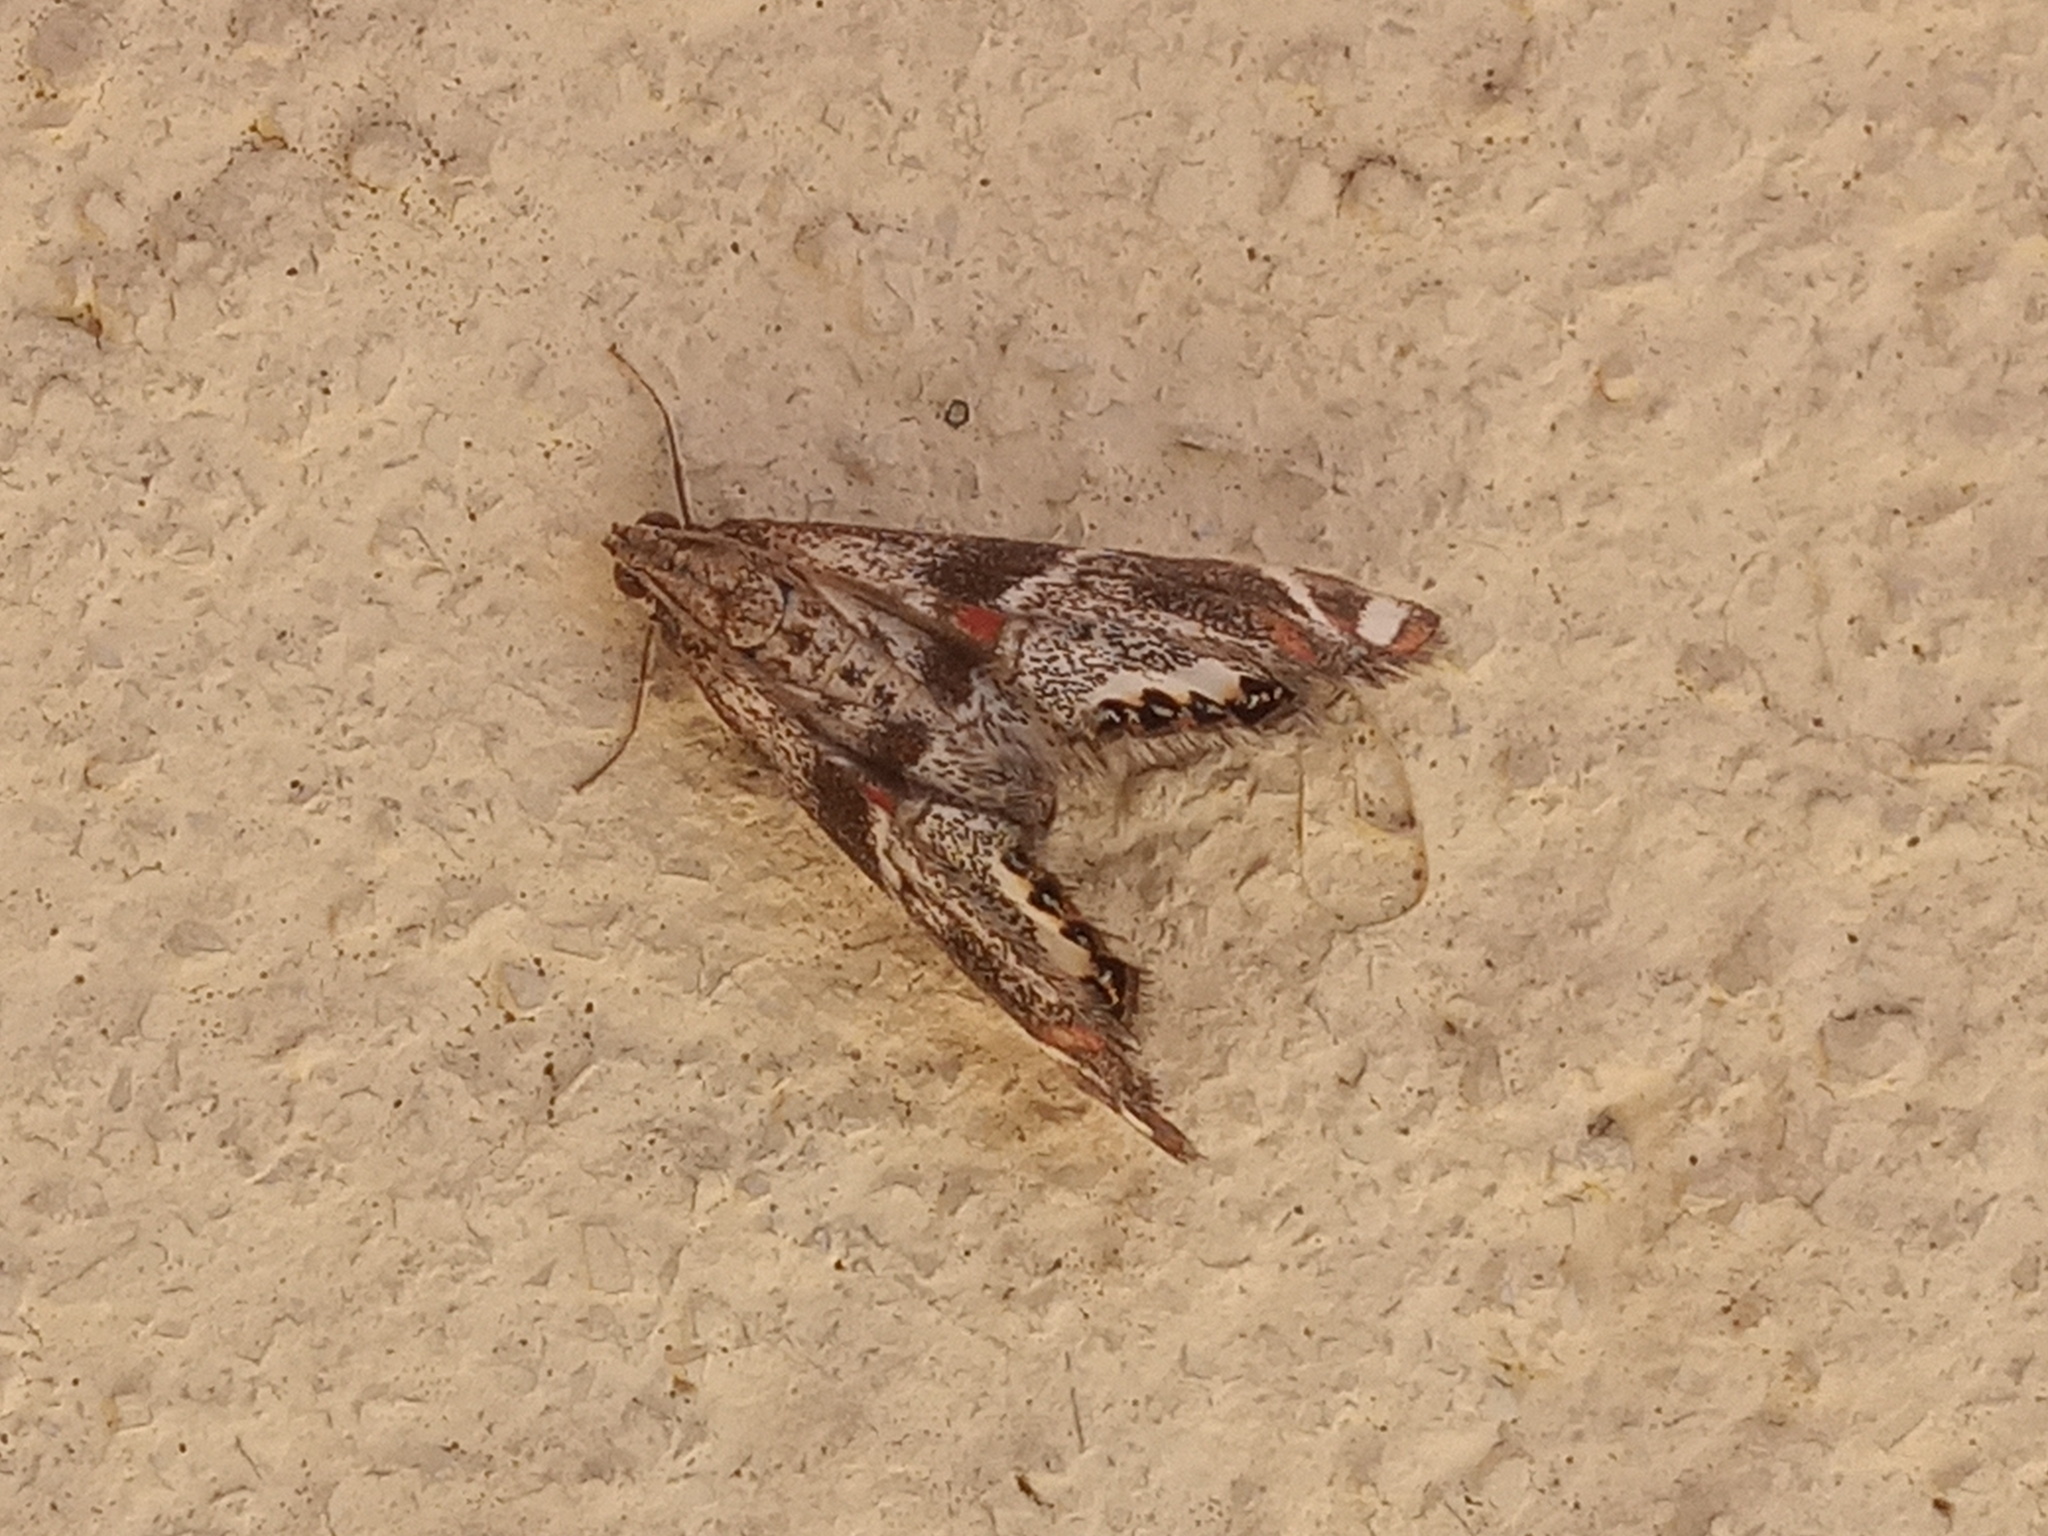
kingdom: Animalia
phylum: Arthropoda
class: Insecta
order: Lepidoptera
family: Crambidae
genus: Petrophila
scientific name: Petrophila jaliscalis
